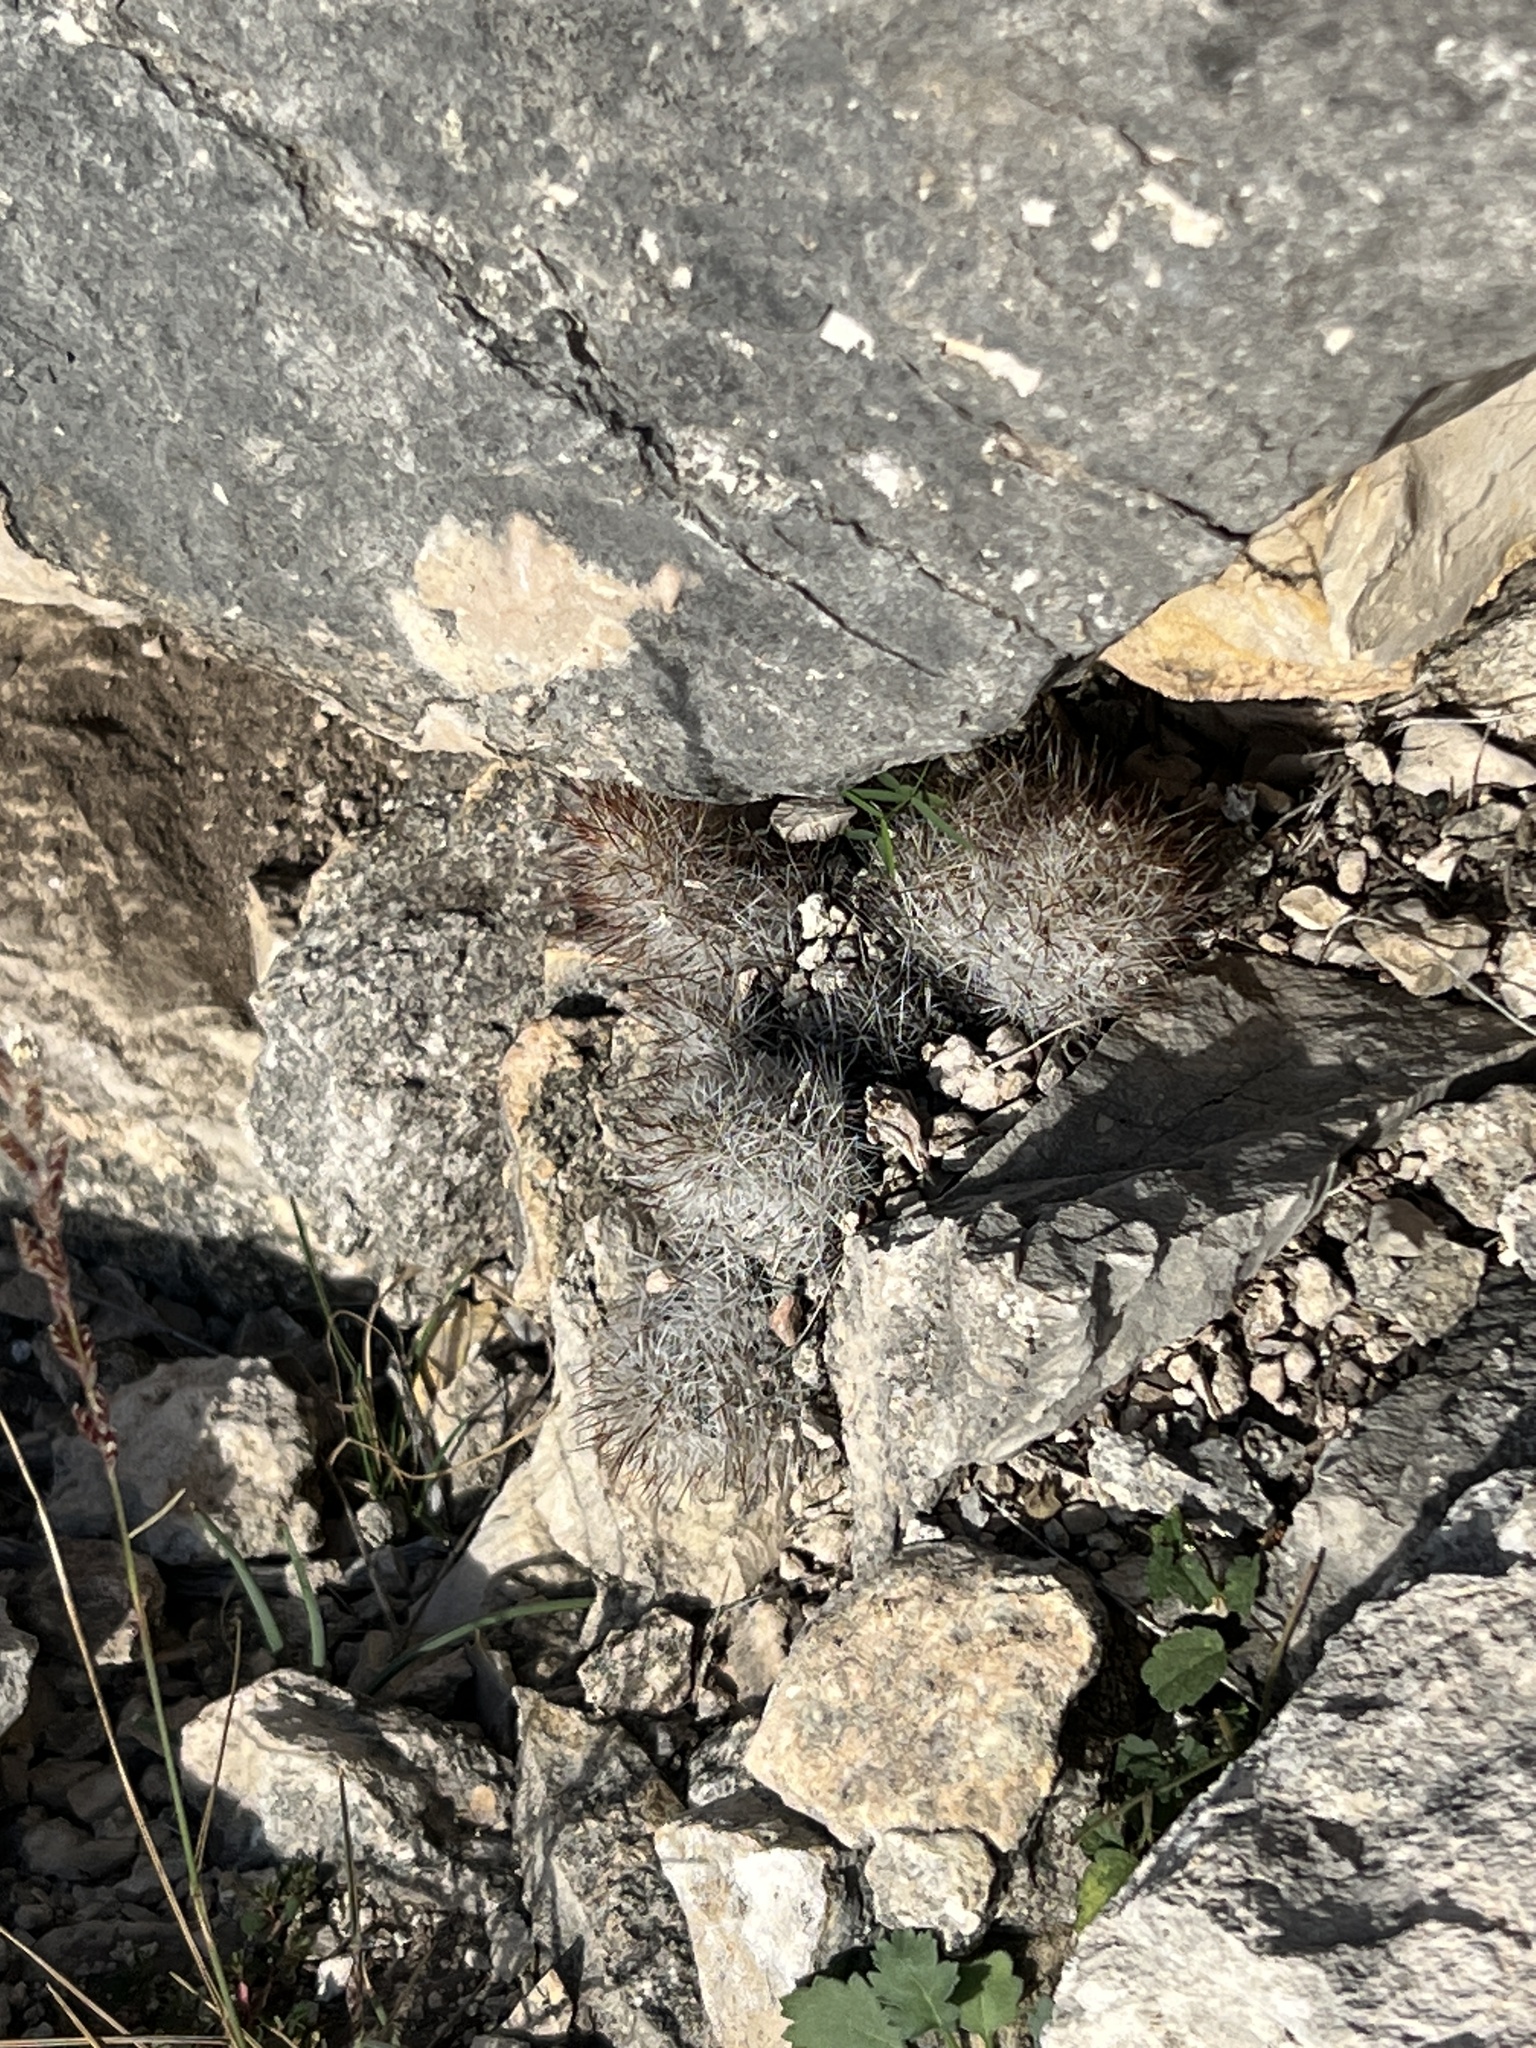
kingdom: Plantae
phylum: Tracheophyta
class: Magnoliopsida
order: Caryophyllales
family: Cactaceae
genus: Pelecyphora
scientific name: Pelecyphora emskoetteriana
